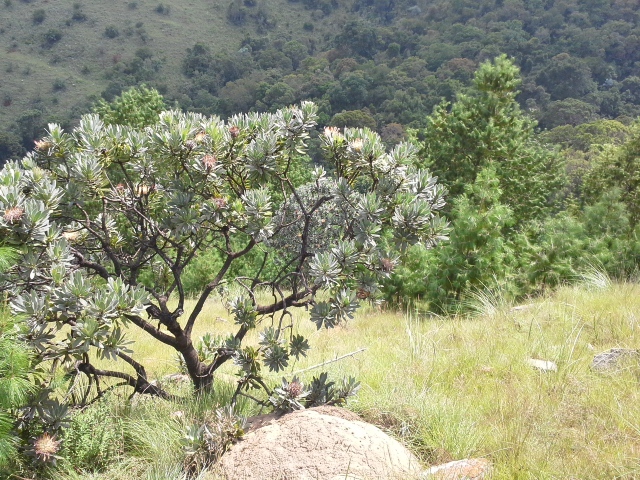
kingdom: Plantae
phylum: Tracheophyta
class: Magnoliopsida
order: Proteales
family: Proteaceae
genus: Protea
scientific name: Protea roupelliae
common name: Silver sugarbush
